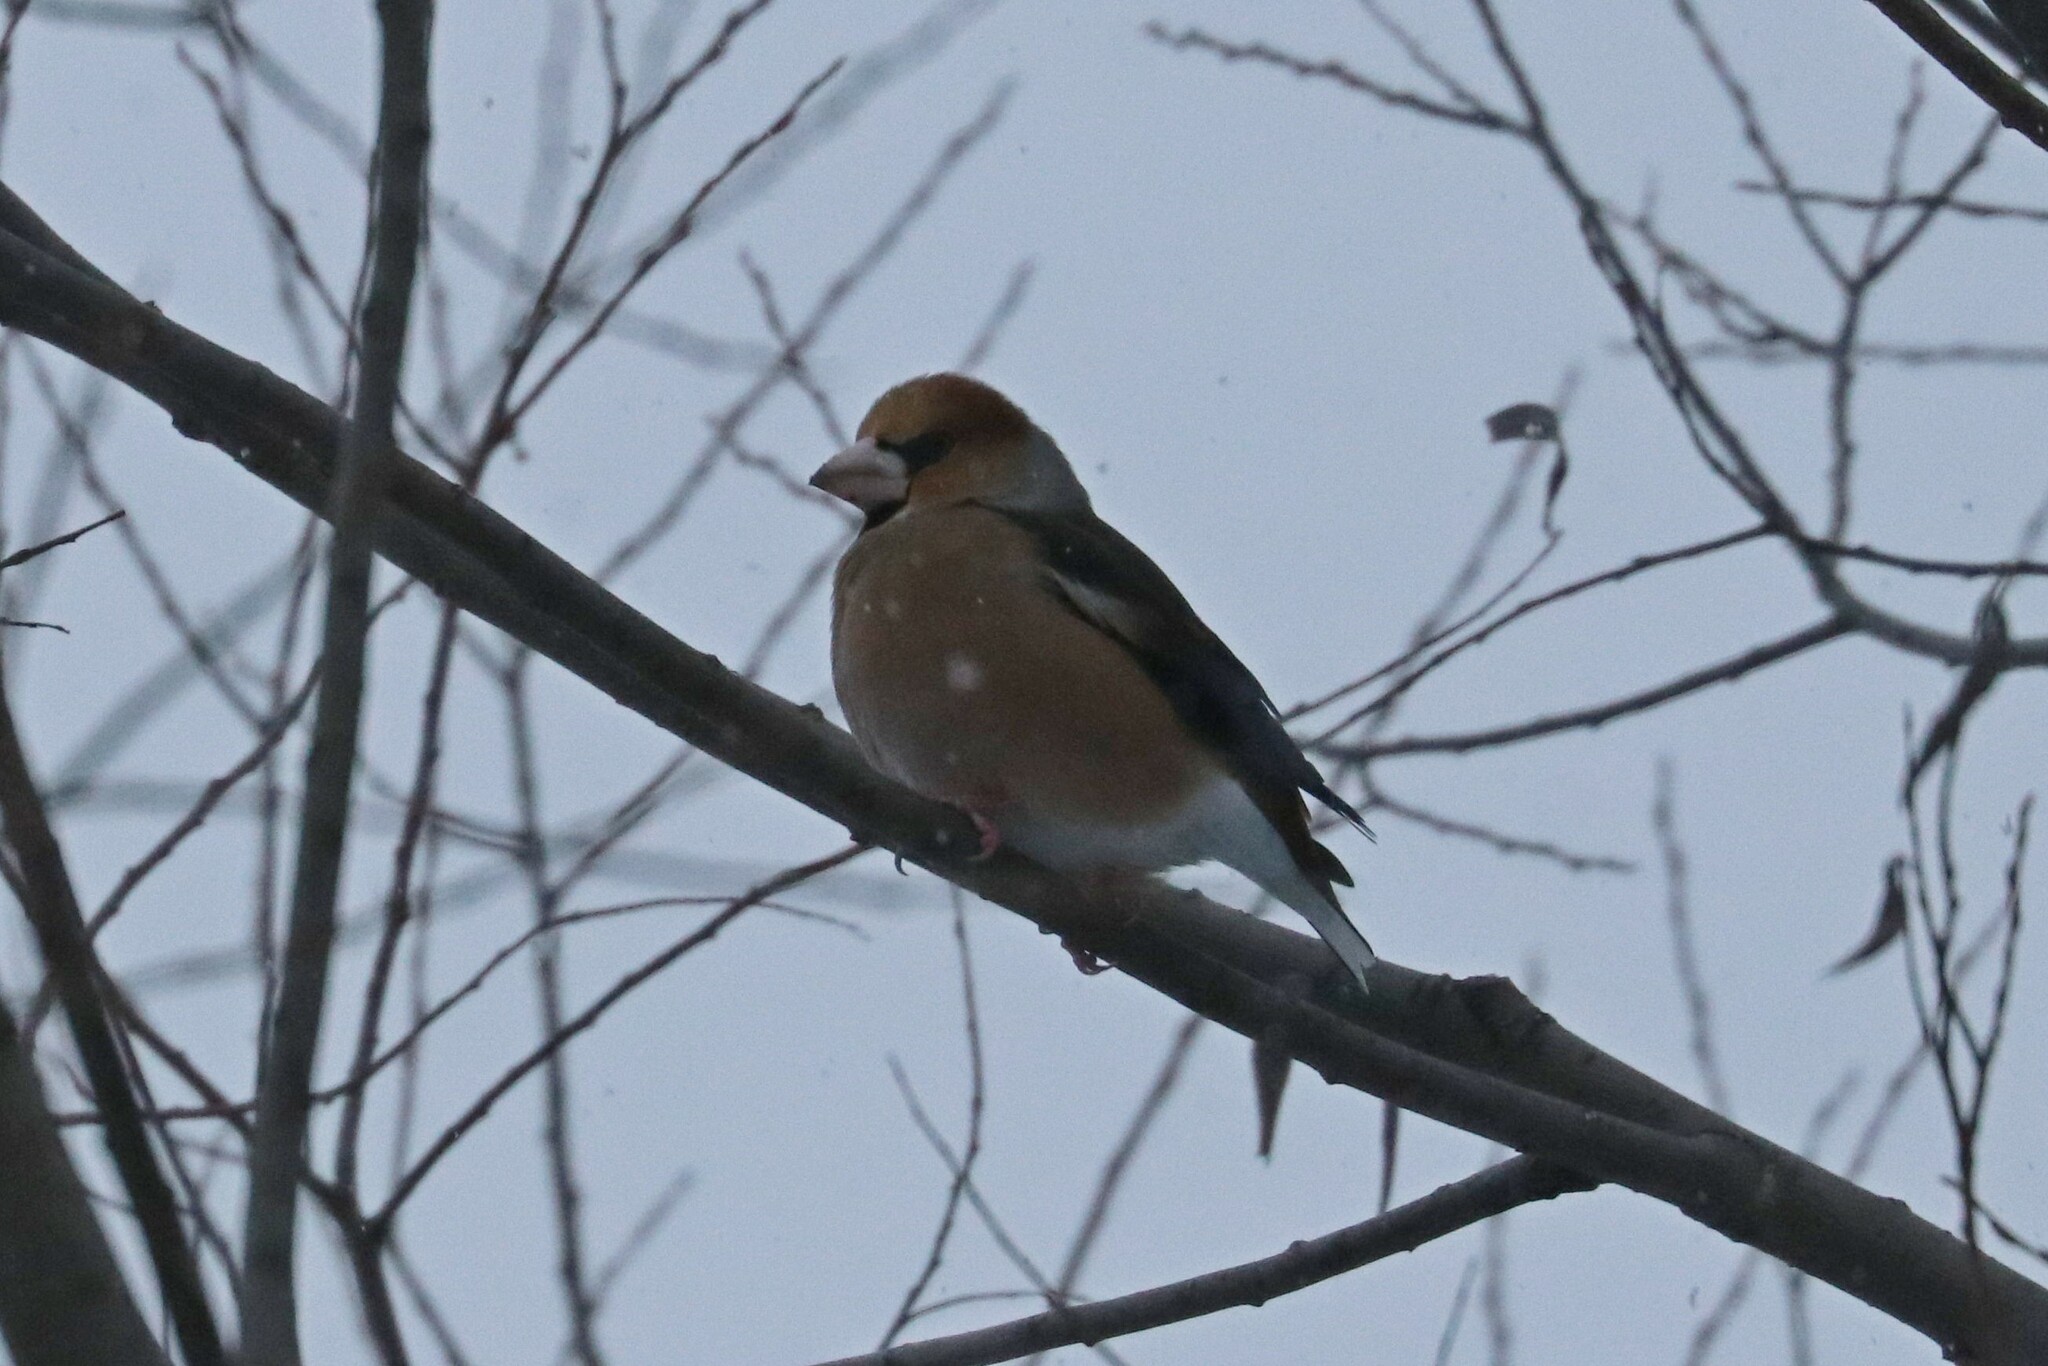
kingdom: Animalia
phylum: Chordata
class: Aves
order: Passeriformes
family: Fringillidae
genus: Coccothraustes
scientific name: Coccothraustes coccothraustes
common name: Hawfinch
